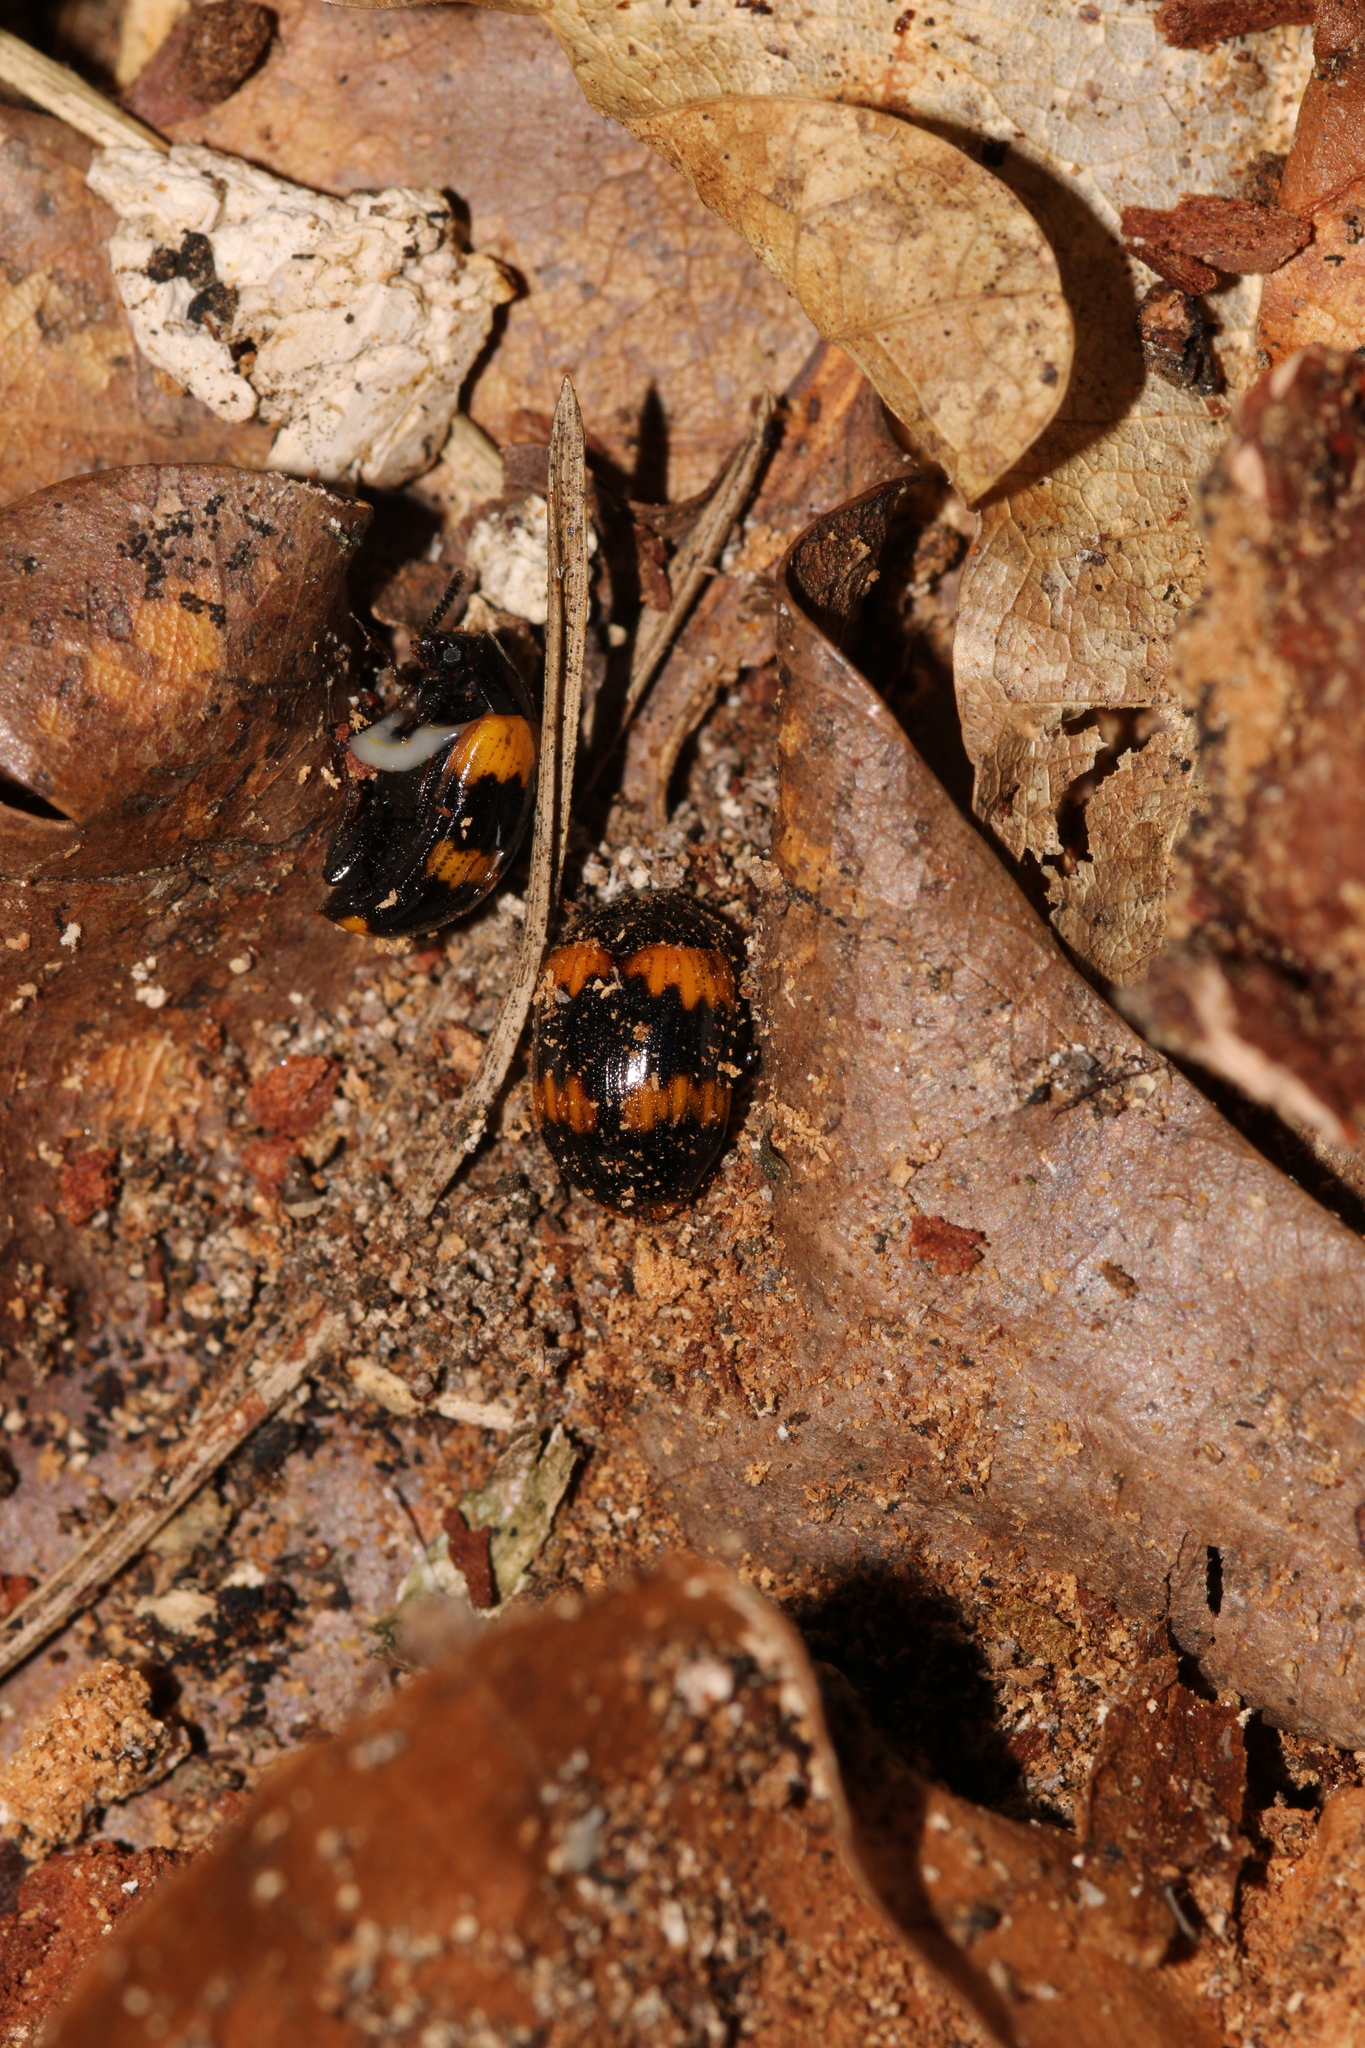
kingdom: Animalia
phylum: Arthropoda
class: Insecta
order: Coleoptera
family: Tenebrionidae
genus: Diaperis
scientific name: Diaperis boleti
